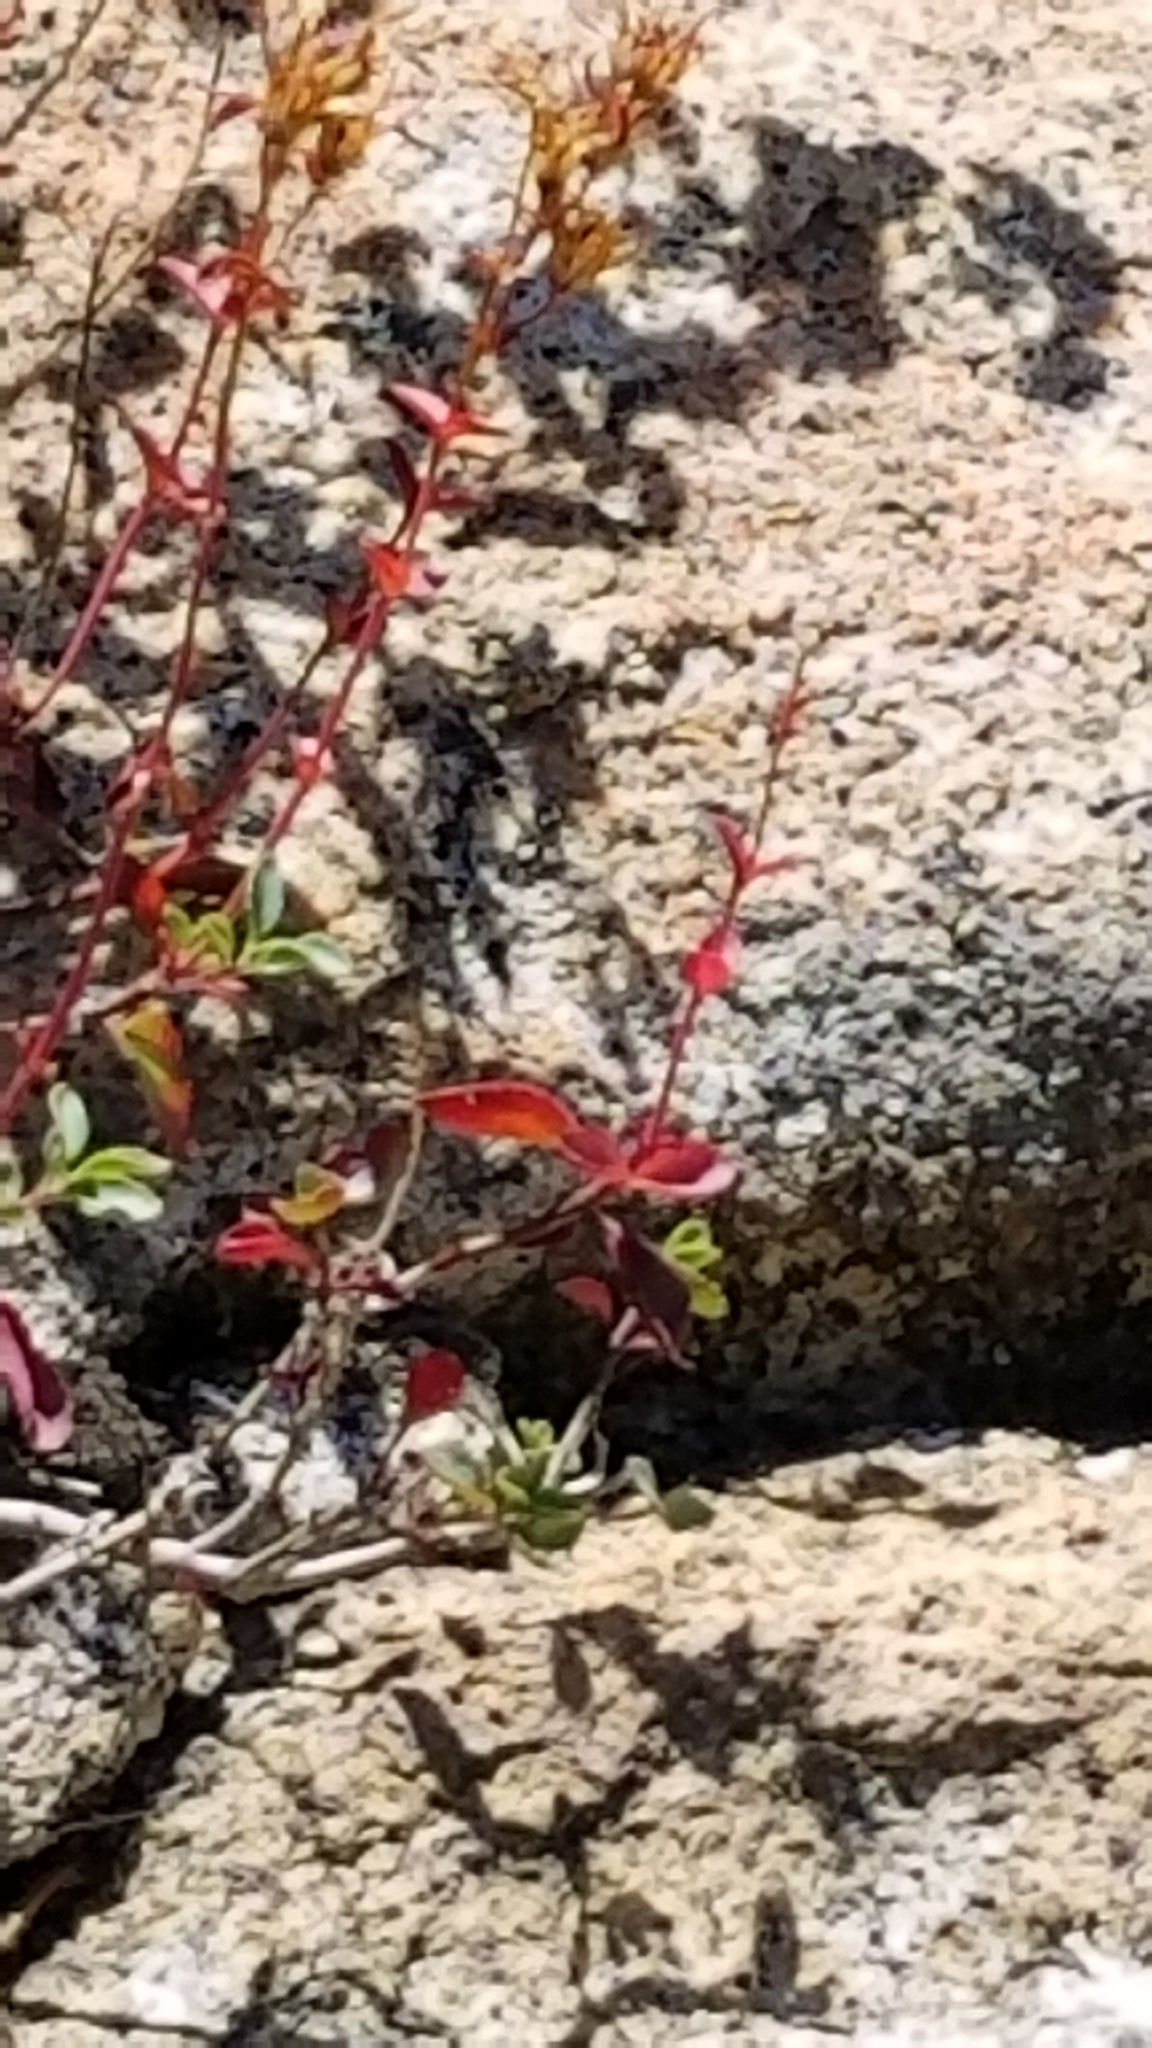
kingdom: Plantae
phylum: Tracheophyta
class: Magnoliopsida
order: Lamiales
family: Plantaginaceae
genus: Penstemon
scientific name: Penstemon newberryi
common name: Mountain-pride
